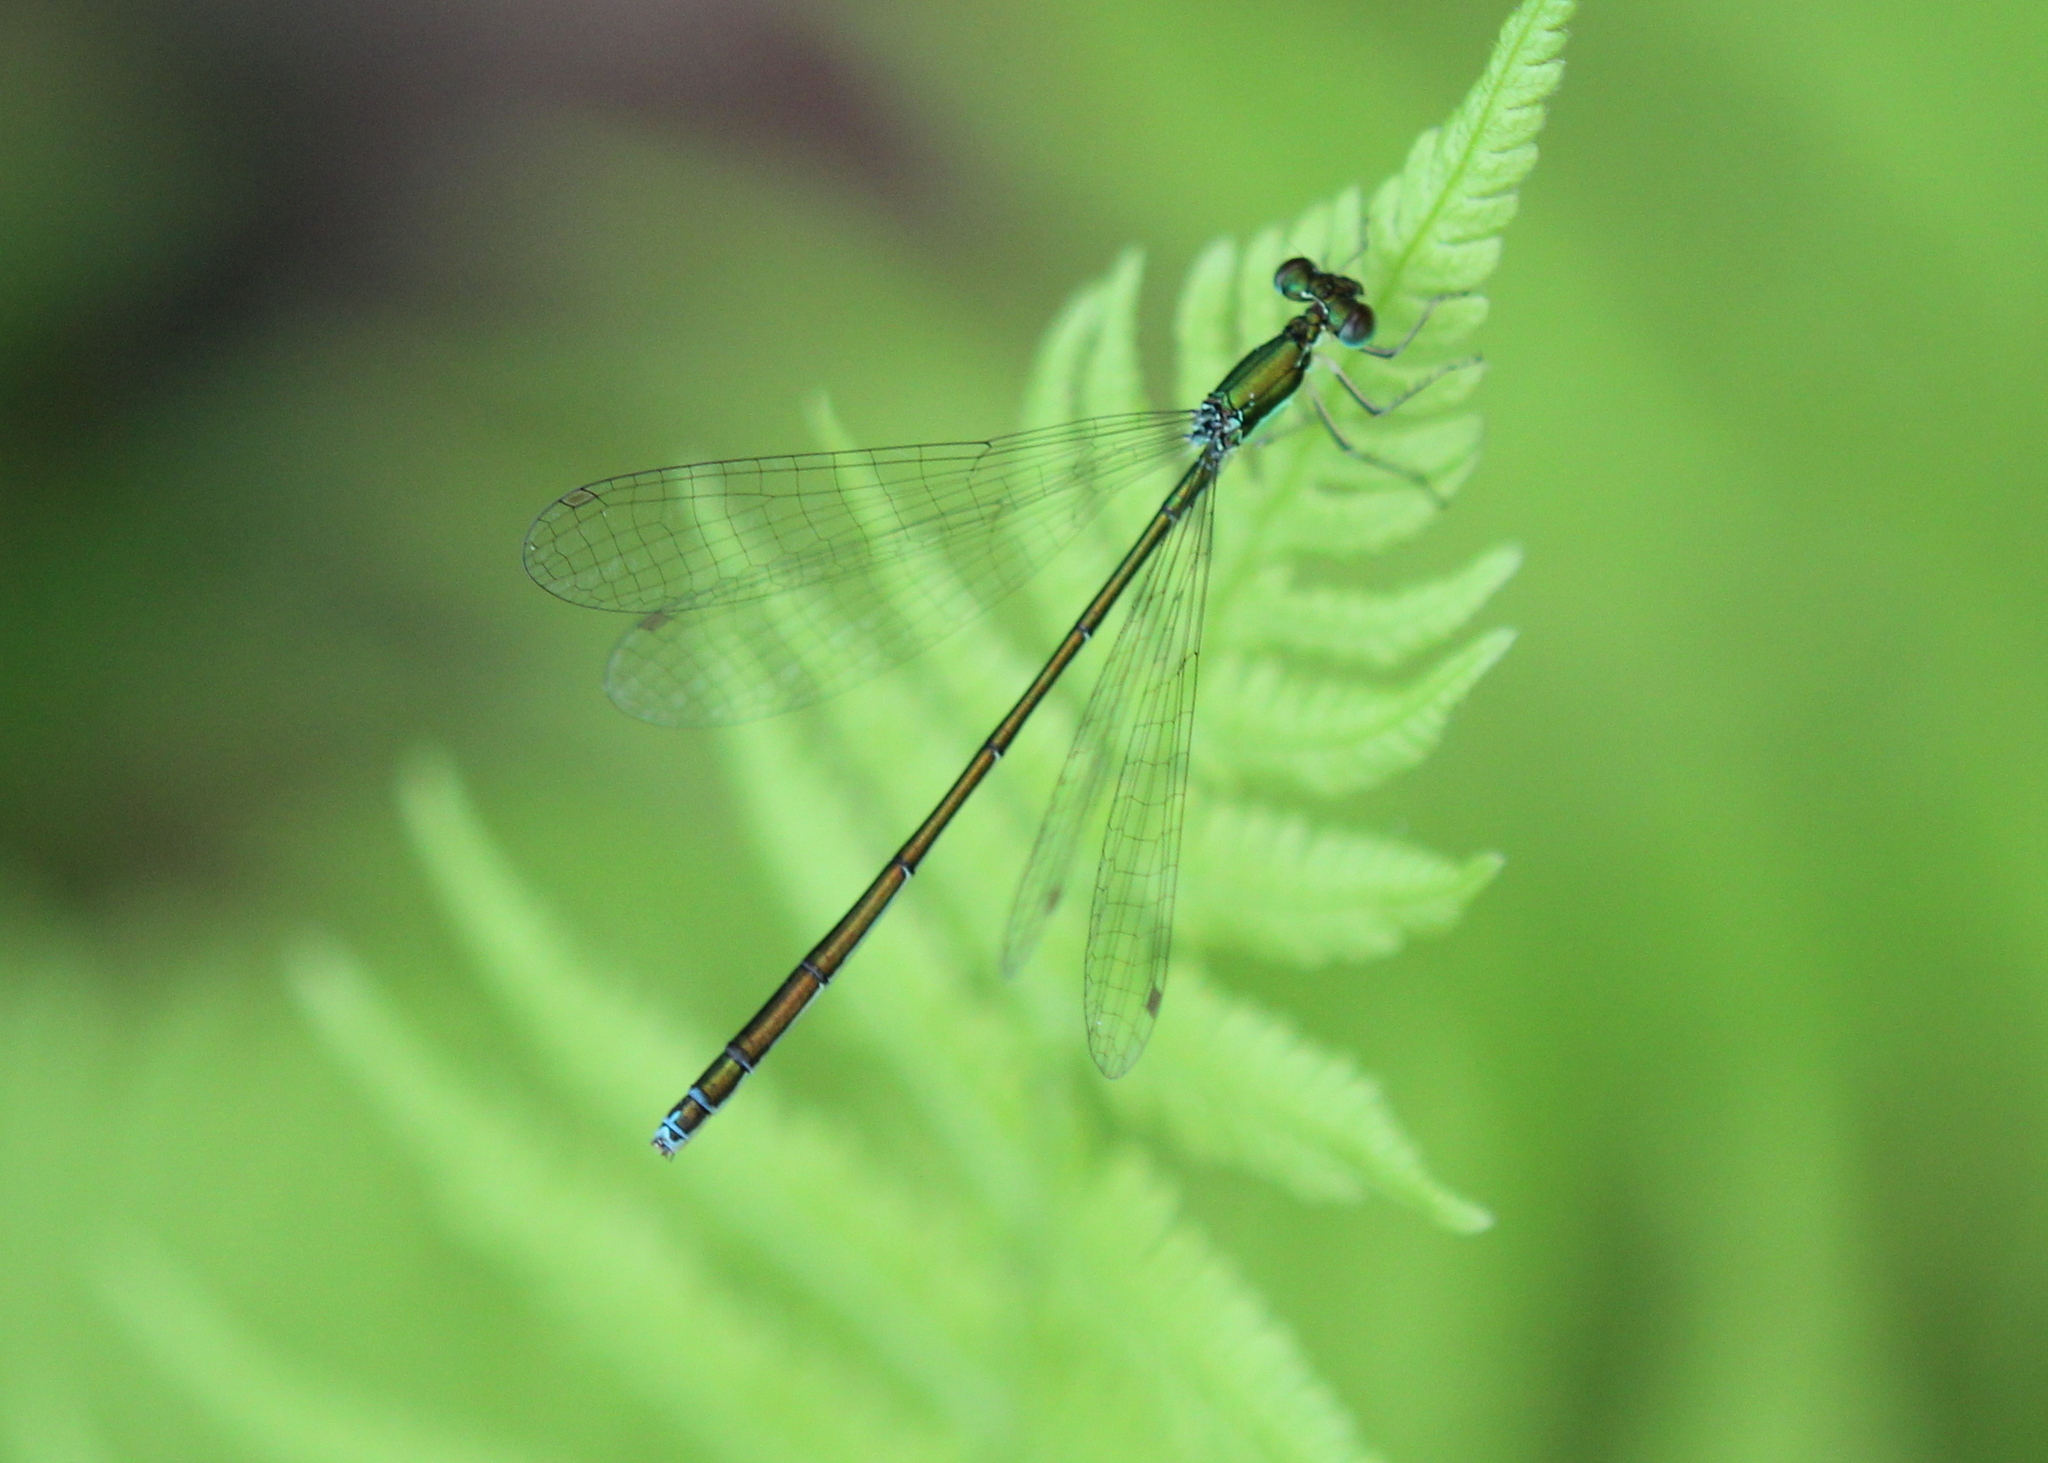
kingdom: Animalia
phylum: Arthropoda
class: Insecta
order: Odonata
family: Coenagrionidae
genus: Nehalennia
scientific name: Nehalennia irene
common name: Sedge sprite
